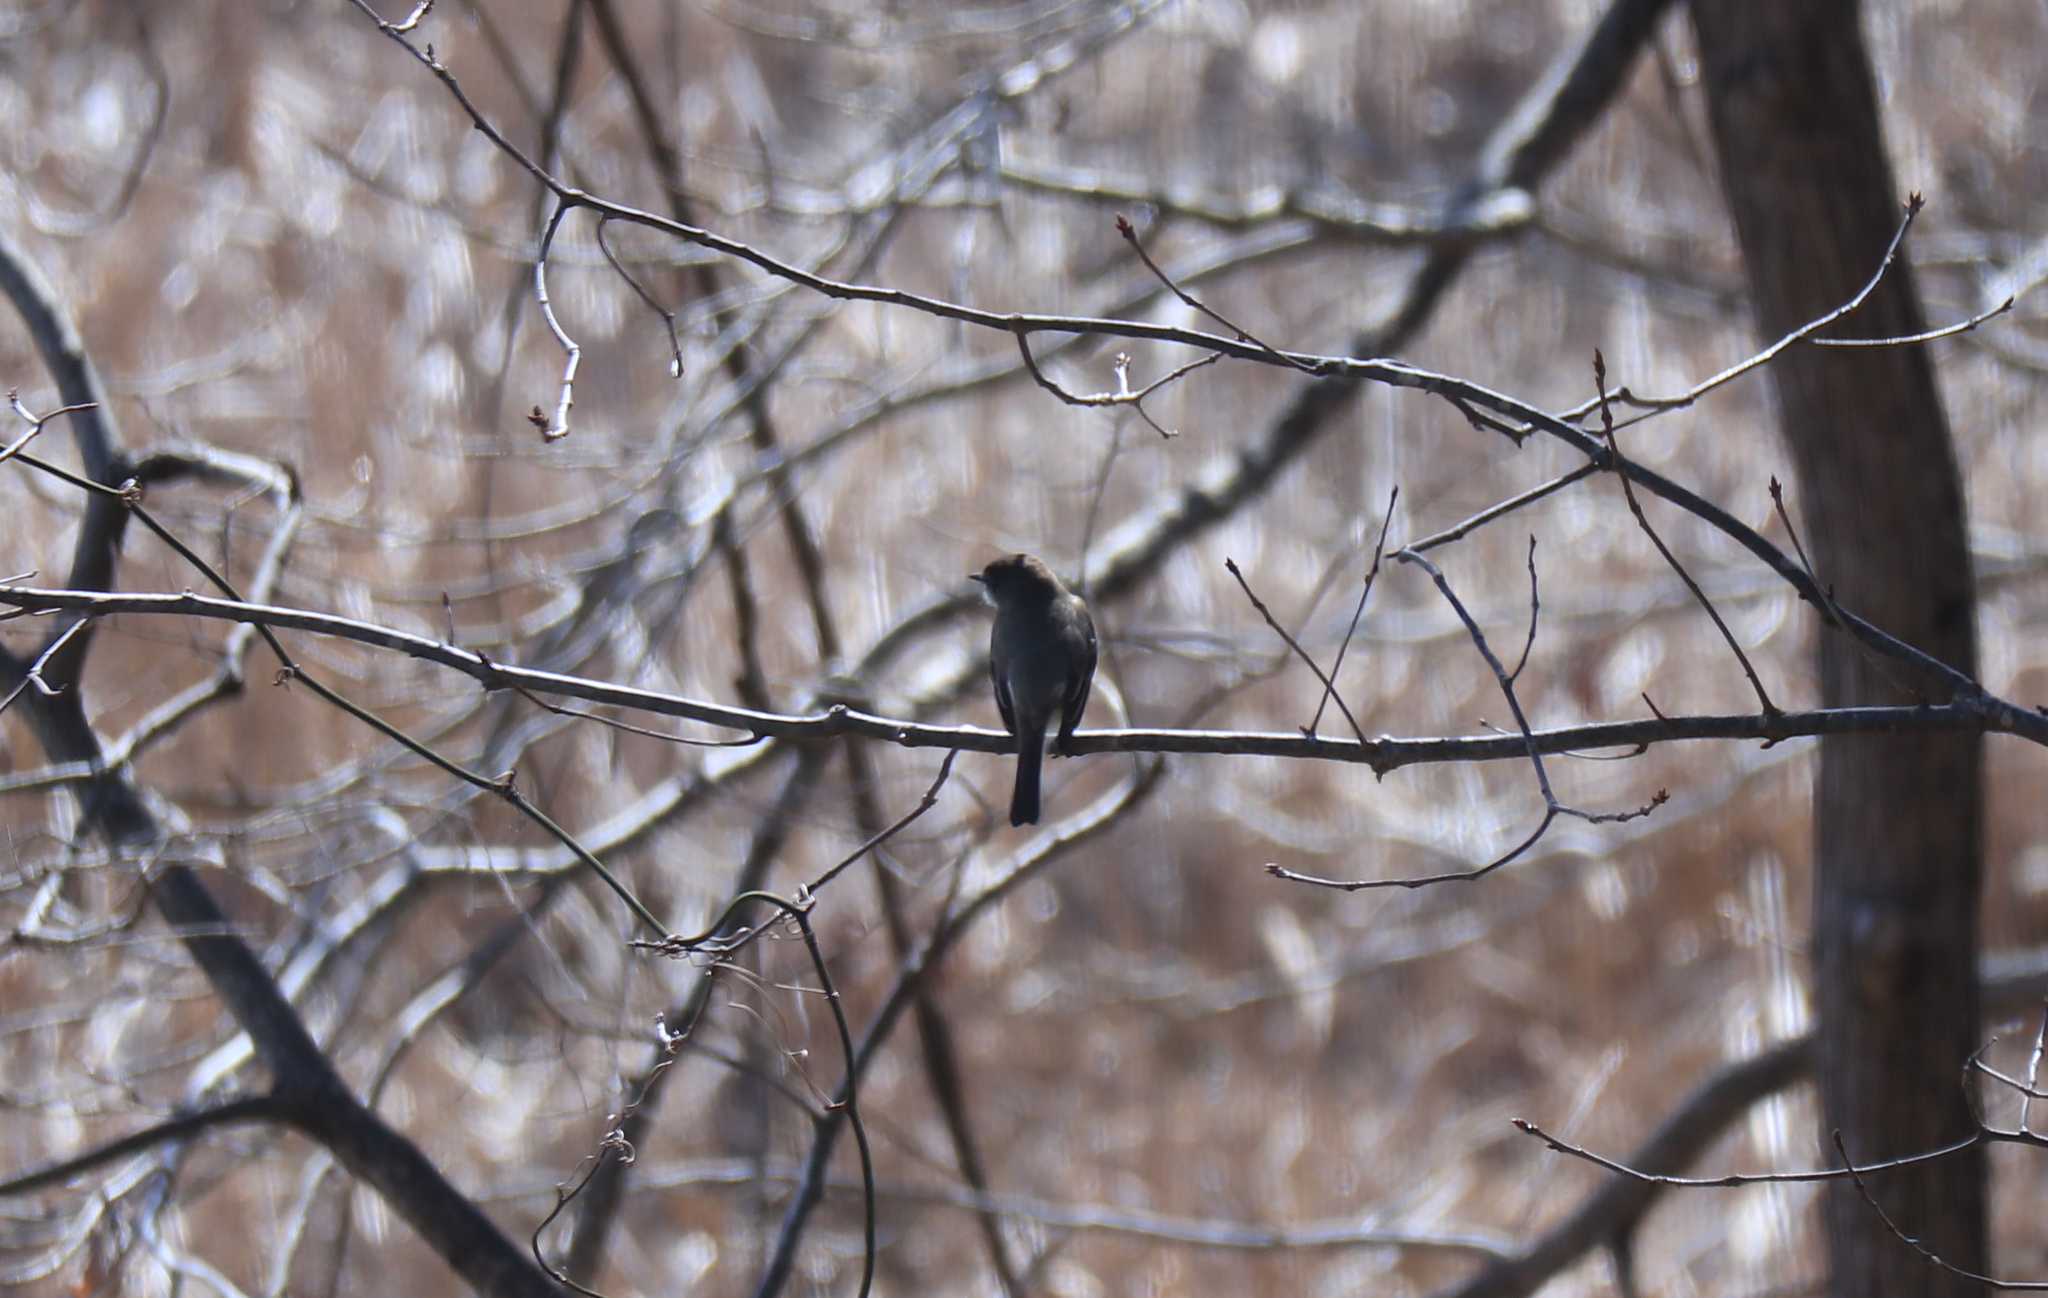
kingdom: Animalia
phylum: Chordata
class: Aves
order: Passeriformes
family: Tyrannidae
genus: Sayornis
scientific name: Sayornis phoebe
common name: Eastern phoebe
